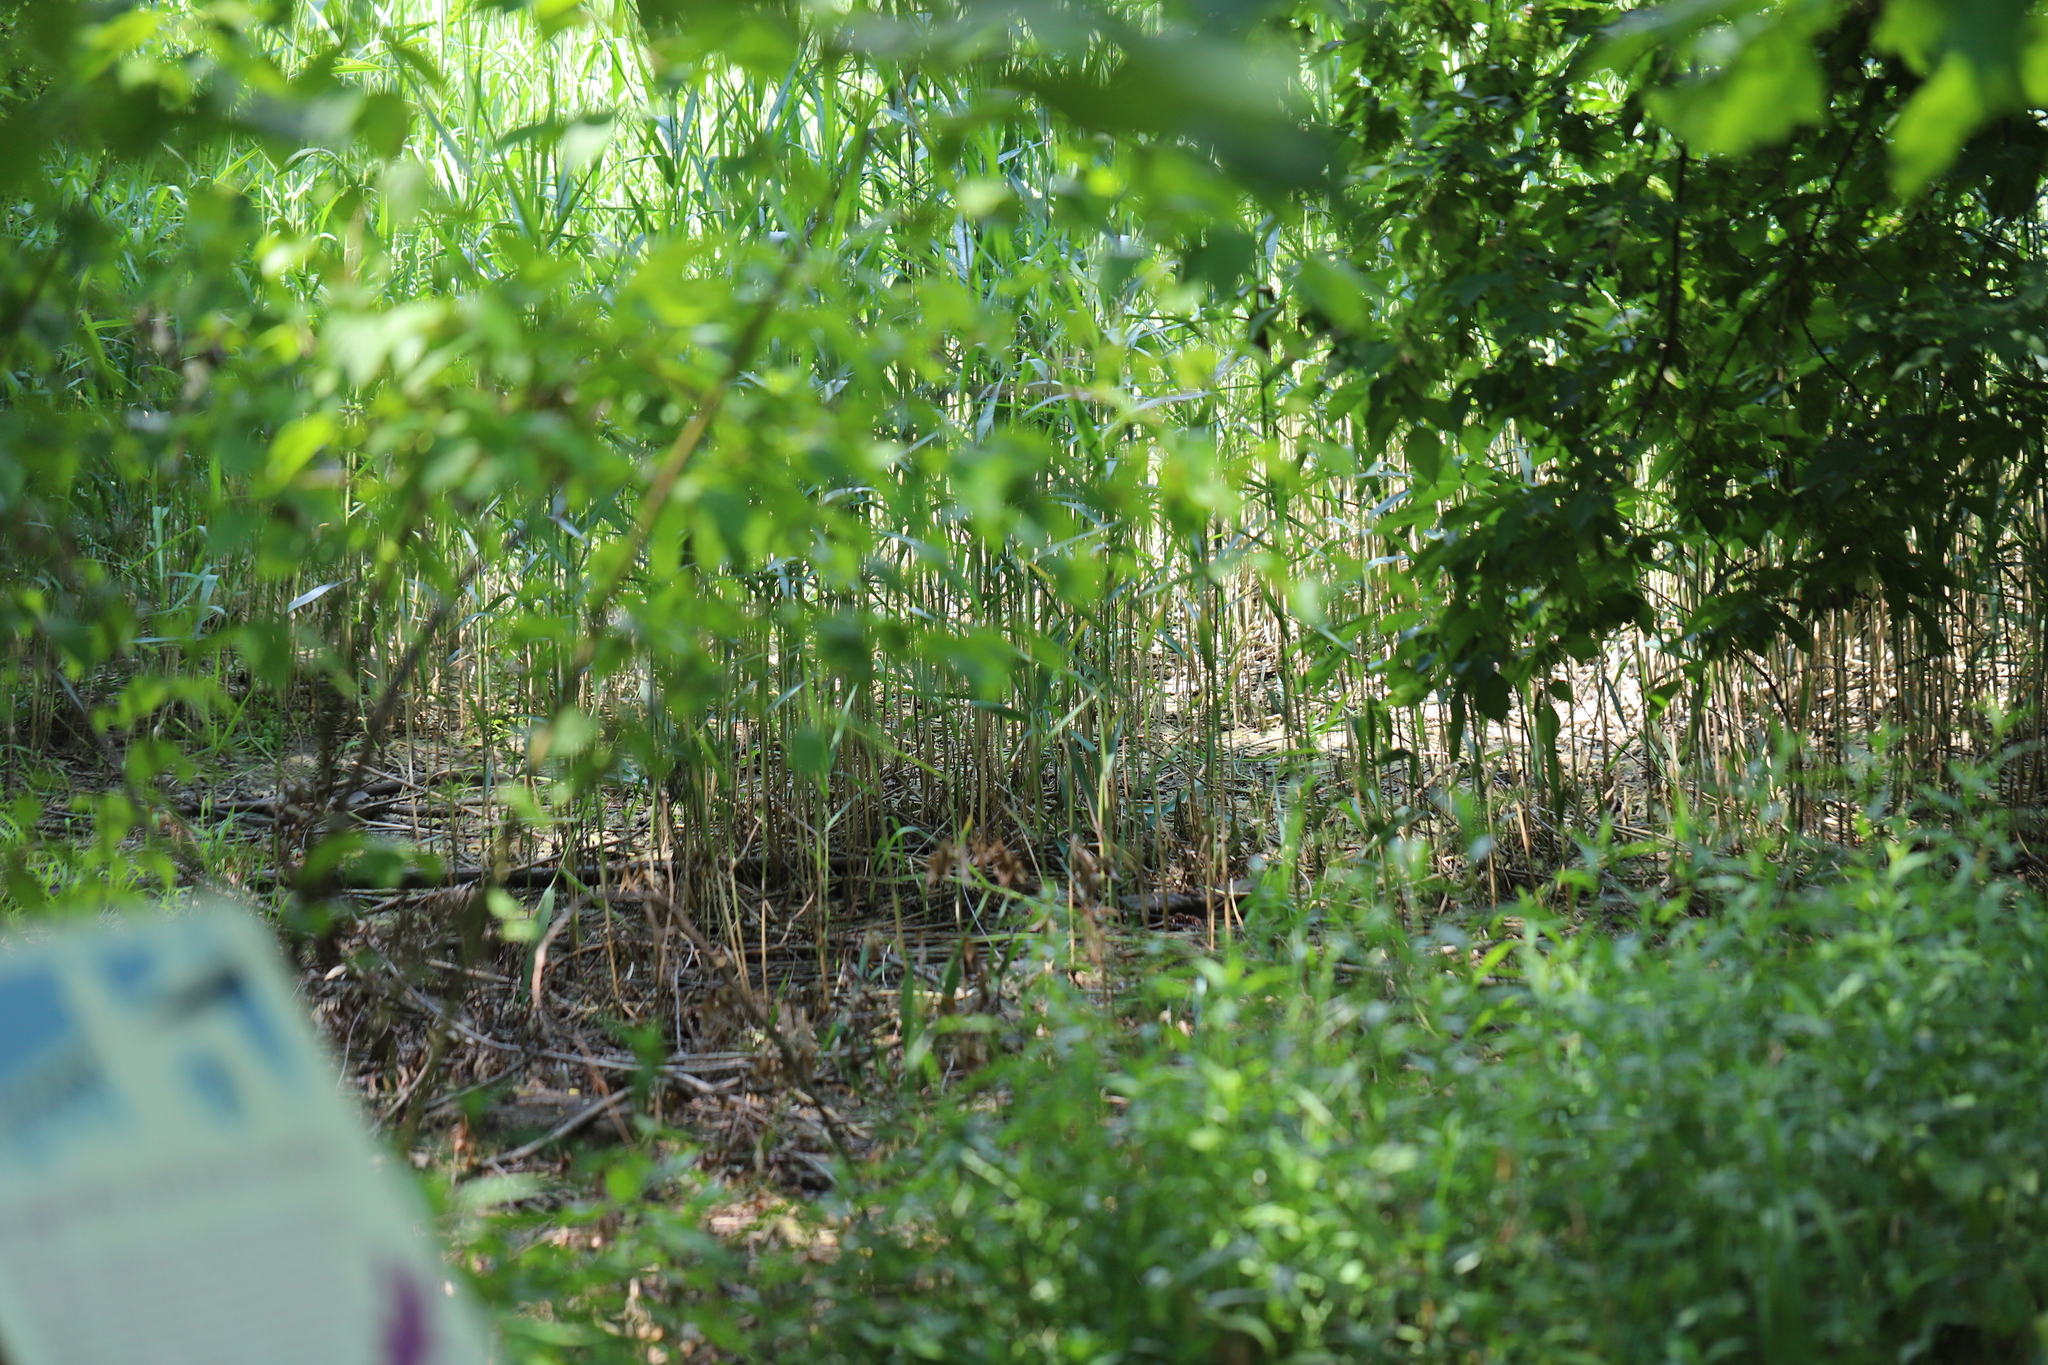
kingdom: Plantae
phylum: Tracheophyta
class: Liliopsida
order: Poales
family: Poaceae
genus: Phragmites
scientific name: Phragmites australis
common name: Common reed
